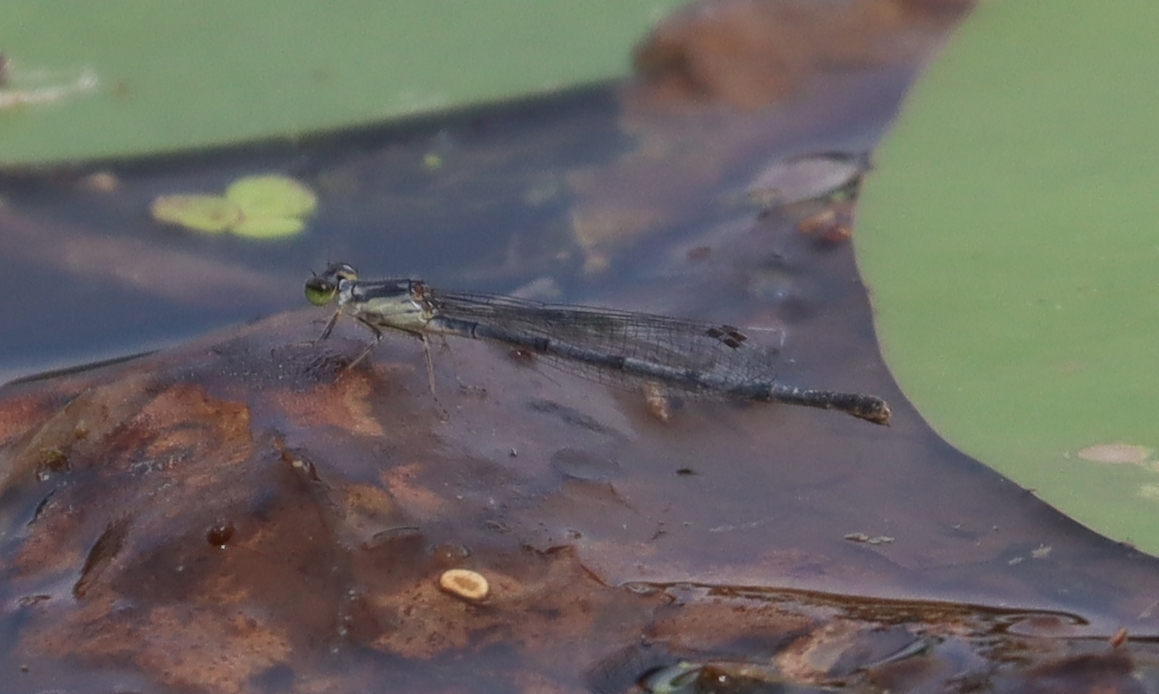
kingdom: Animalia
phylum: Arthropoda
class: Insecta
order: Odonata
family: Coenagrionidae
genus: Ischnura
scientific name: Ischnura posita
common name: Fragile forktail
